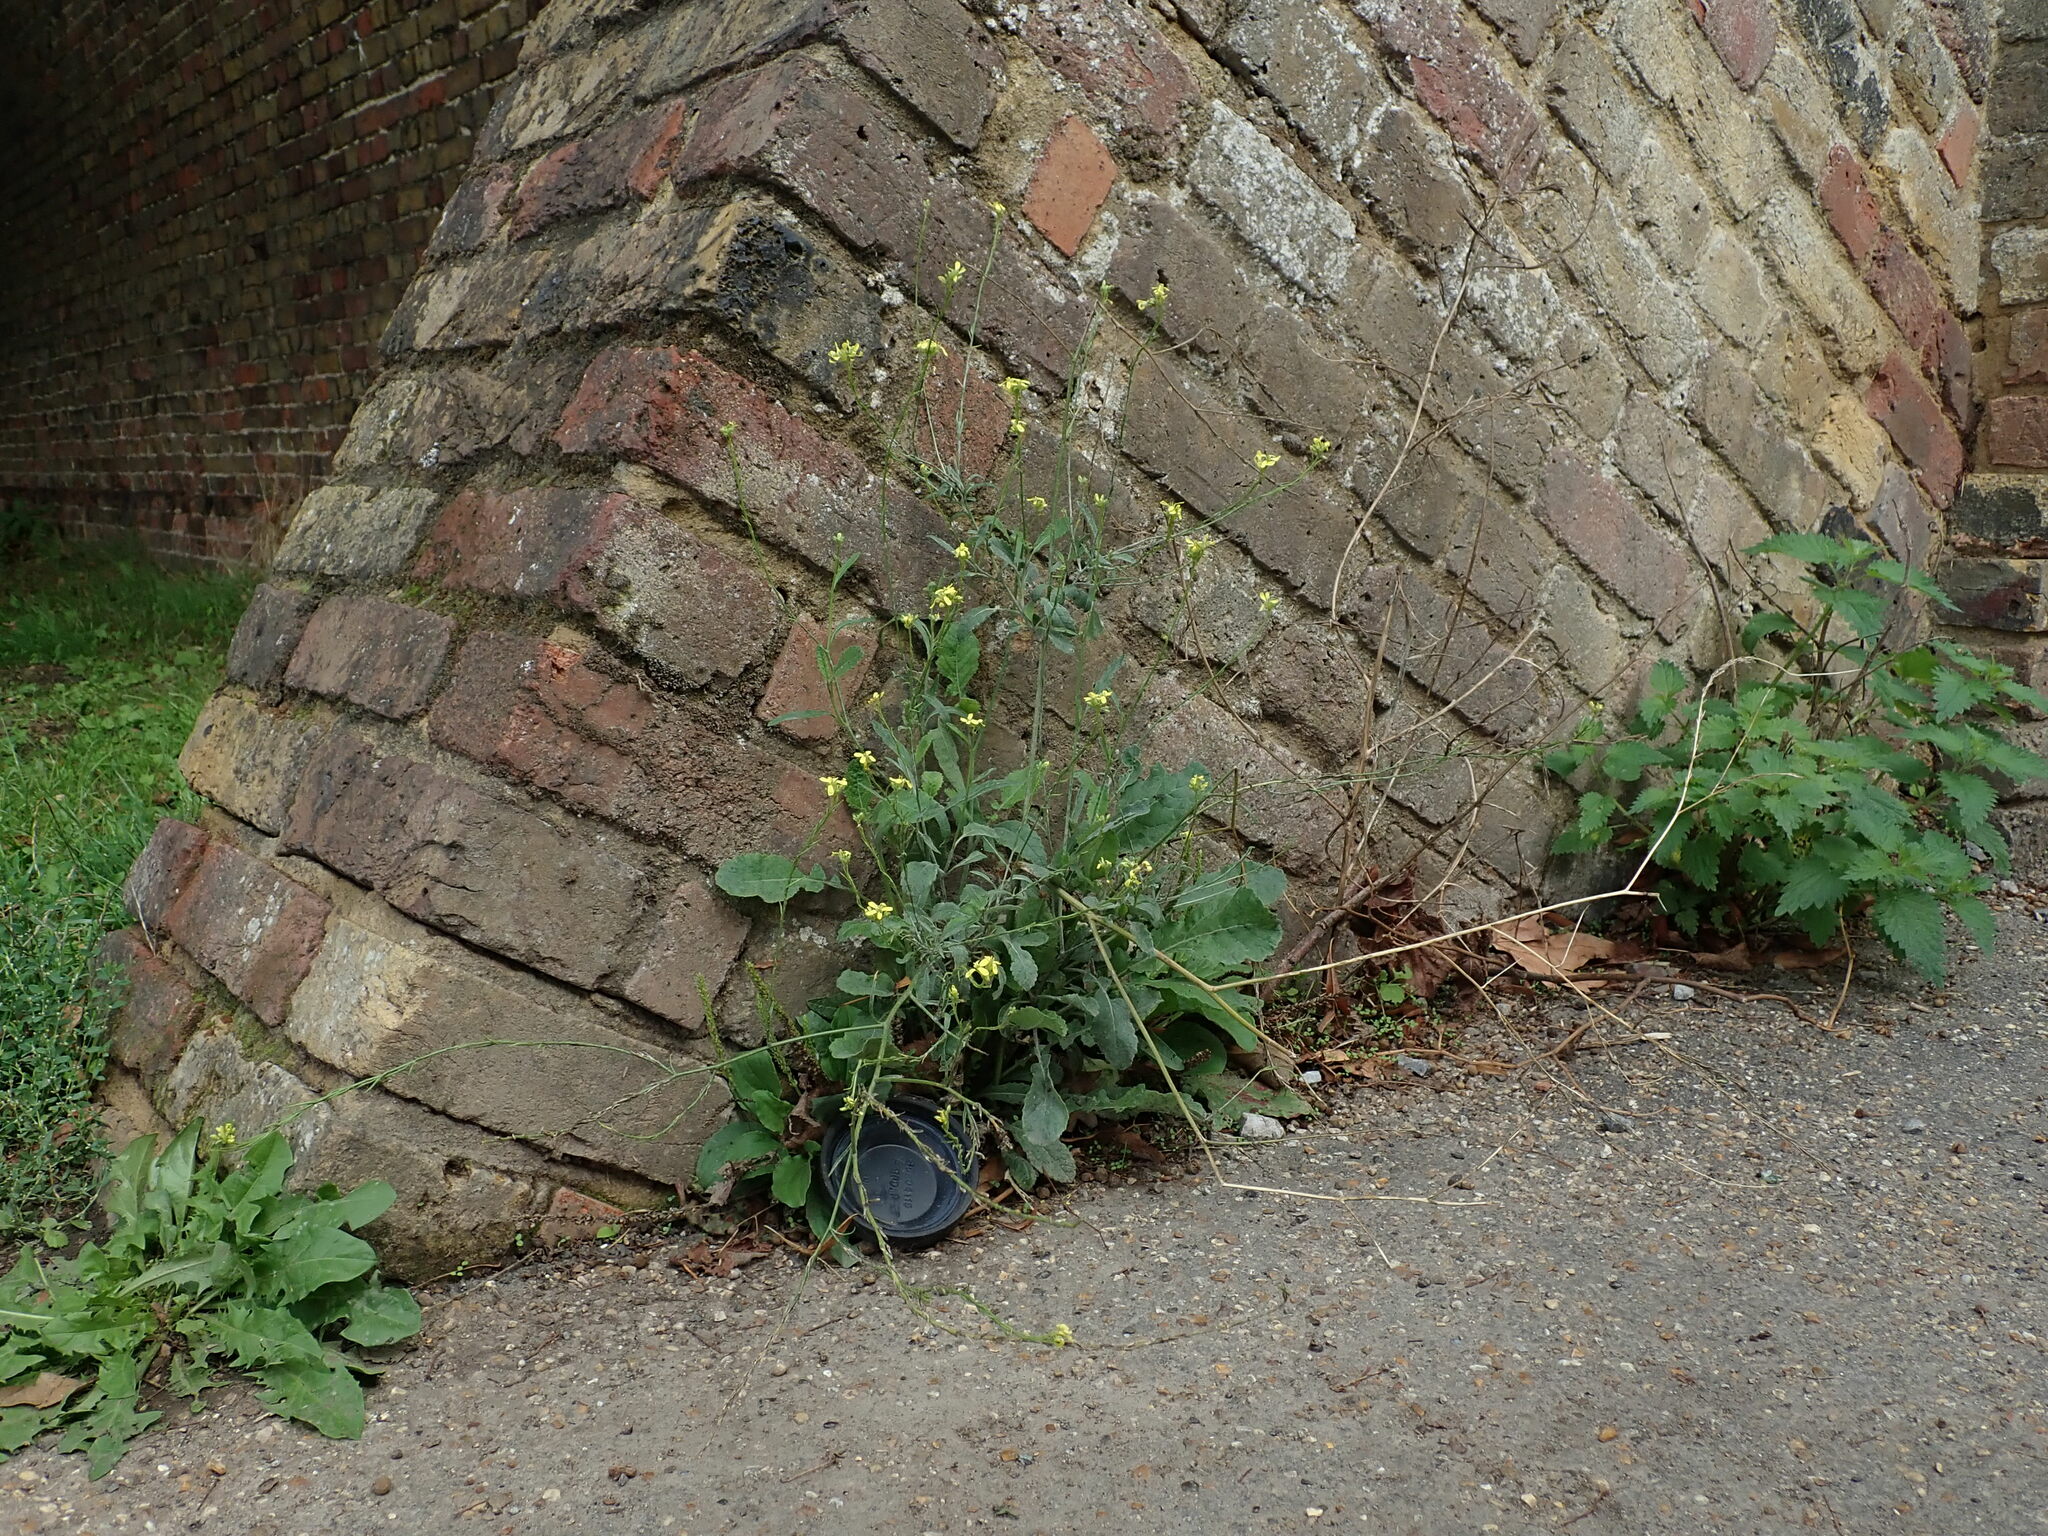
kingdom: Plantae
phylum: Tracheophyta
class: Magnoliopsida
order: Brassicales
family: Brassicaceae
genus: Hirschfeldia
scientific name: Hirschfeldia incana
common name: Hoary mustard
